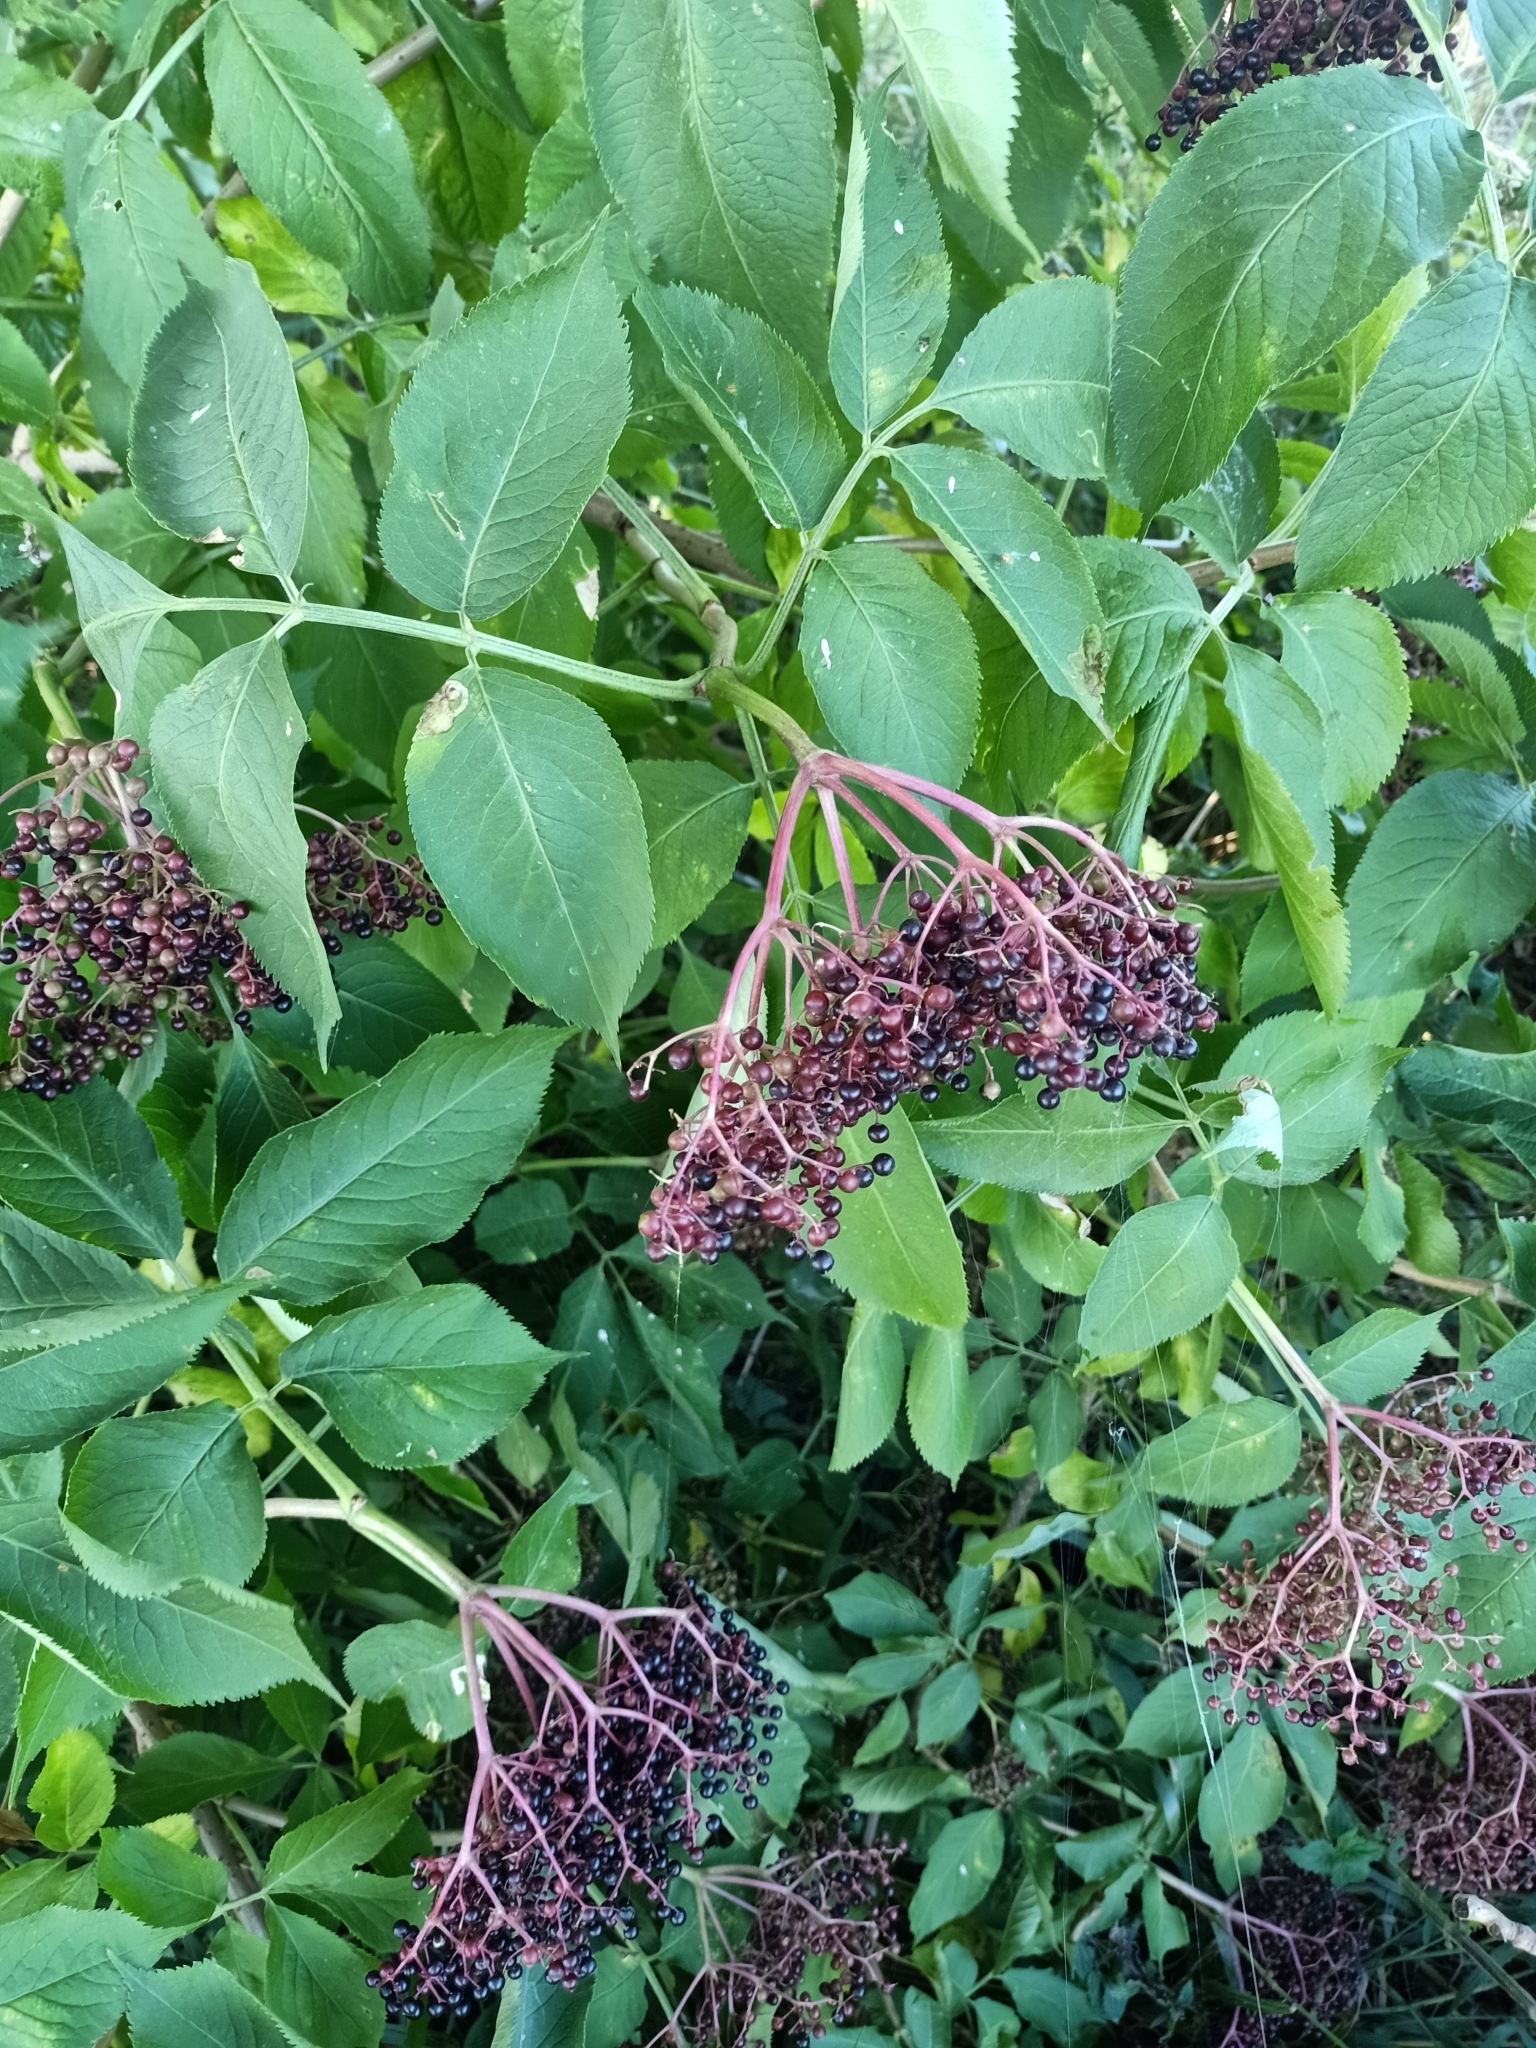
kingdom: Plantae
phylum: Tracheophyta
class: Magnoliopsida
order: Dipsacales
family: Viburnaceae
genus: Sambucus
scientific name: Sambucus nigra
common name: Elder
